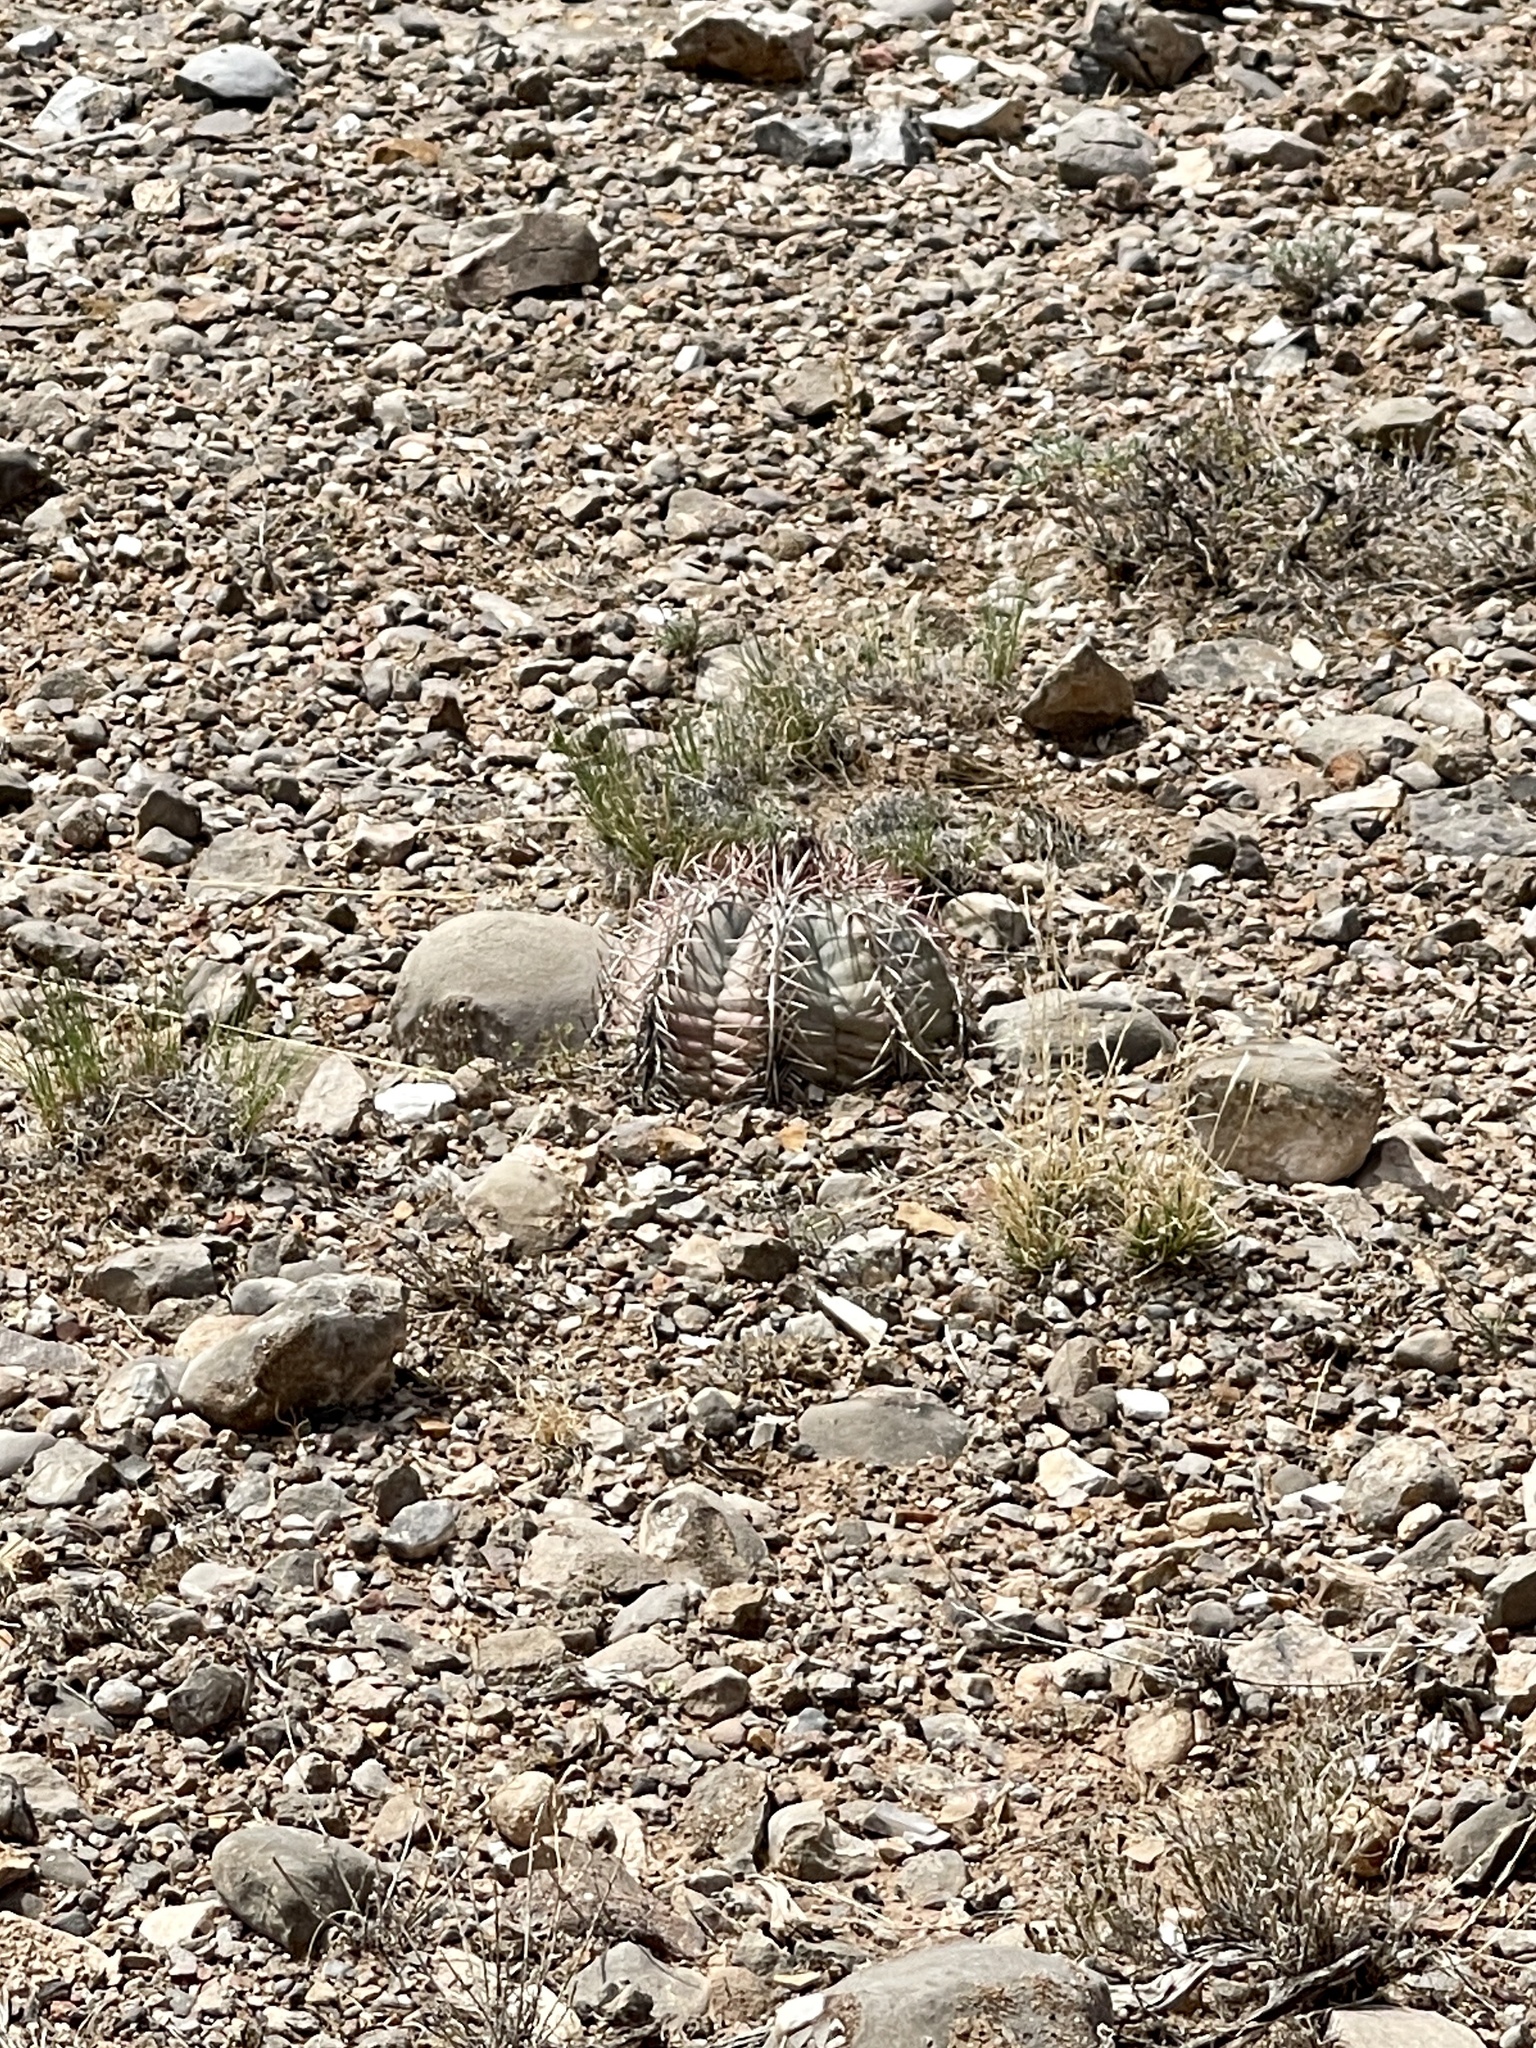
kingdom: Plantae
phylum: Tracheophyta
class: Magnoliopsida
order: Caryophyllales
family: Cactaceae
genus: Echinocactus
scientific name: Echinocactus horizonthalonius
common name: Devilshead
